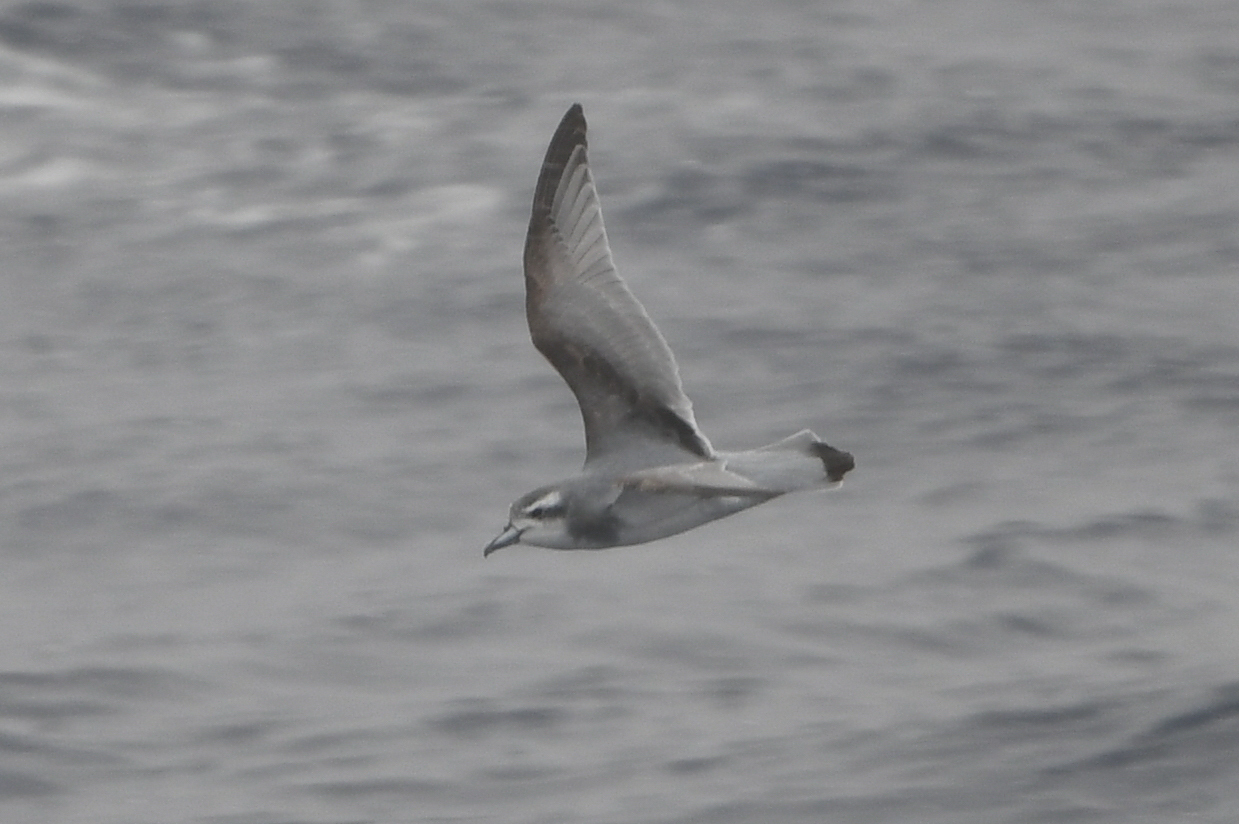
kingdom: Animalia
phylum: Chordata
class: Aves
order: Procellariiformes
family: Procellariidae
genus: Pachyptila
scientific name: Pachyptila desolata
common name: Antarctic prion
